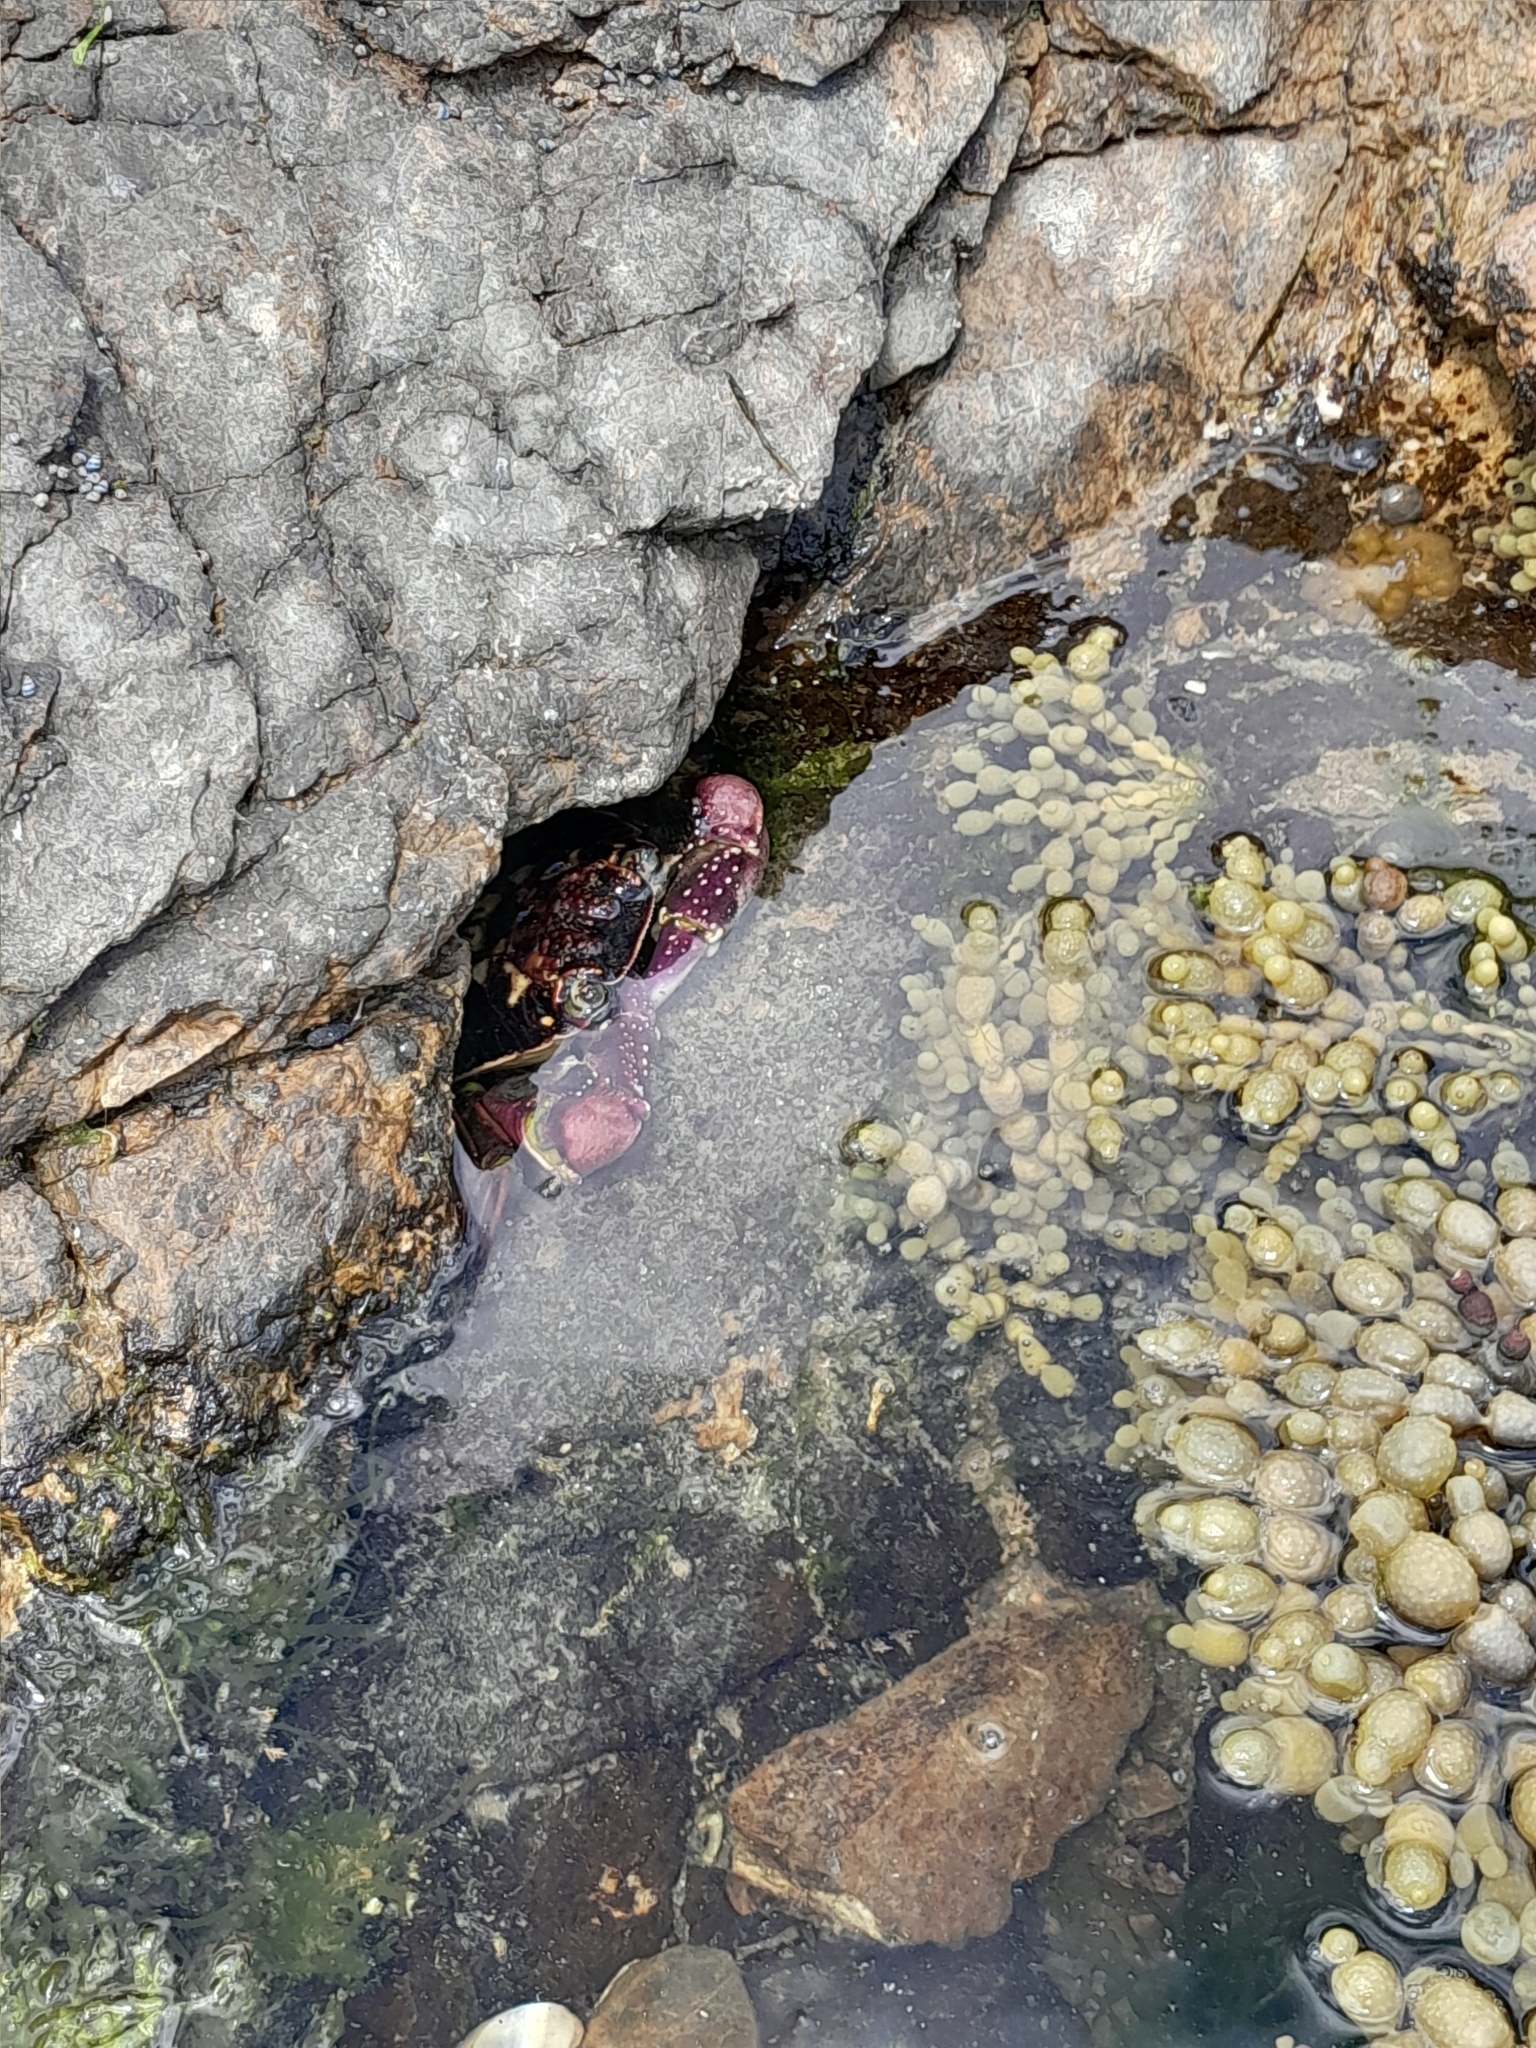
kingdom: Animalia
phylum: Arthropoda
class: Malacostraca
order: Decapoda
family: Grapsidae
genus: Leptograpsus
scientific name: Leptograpsus variegatus
